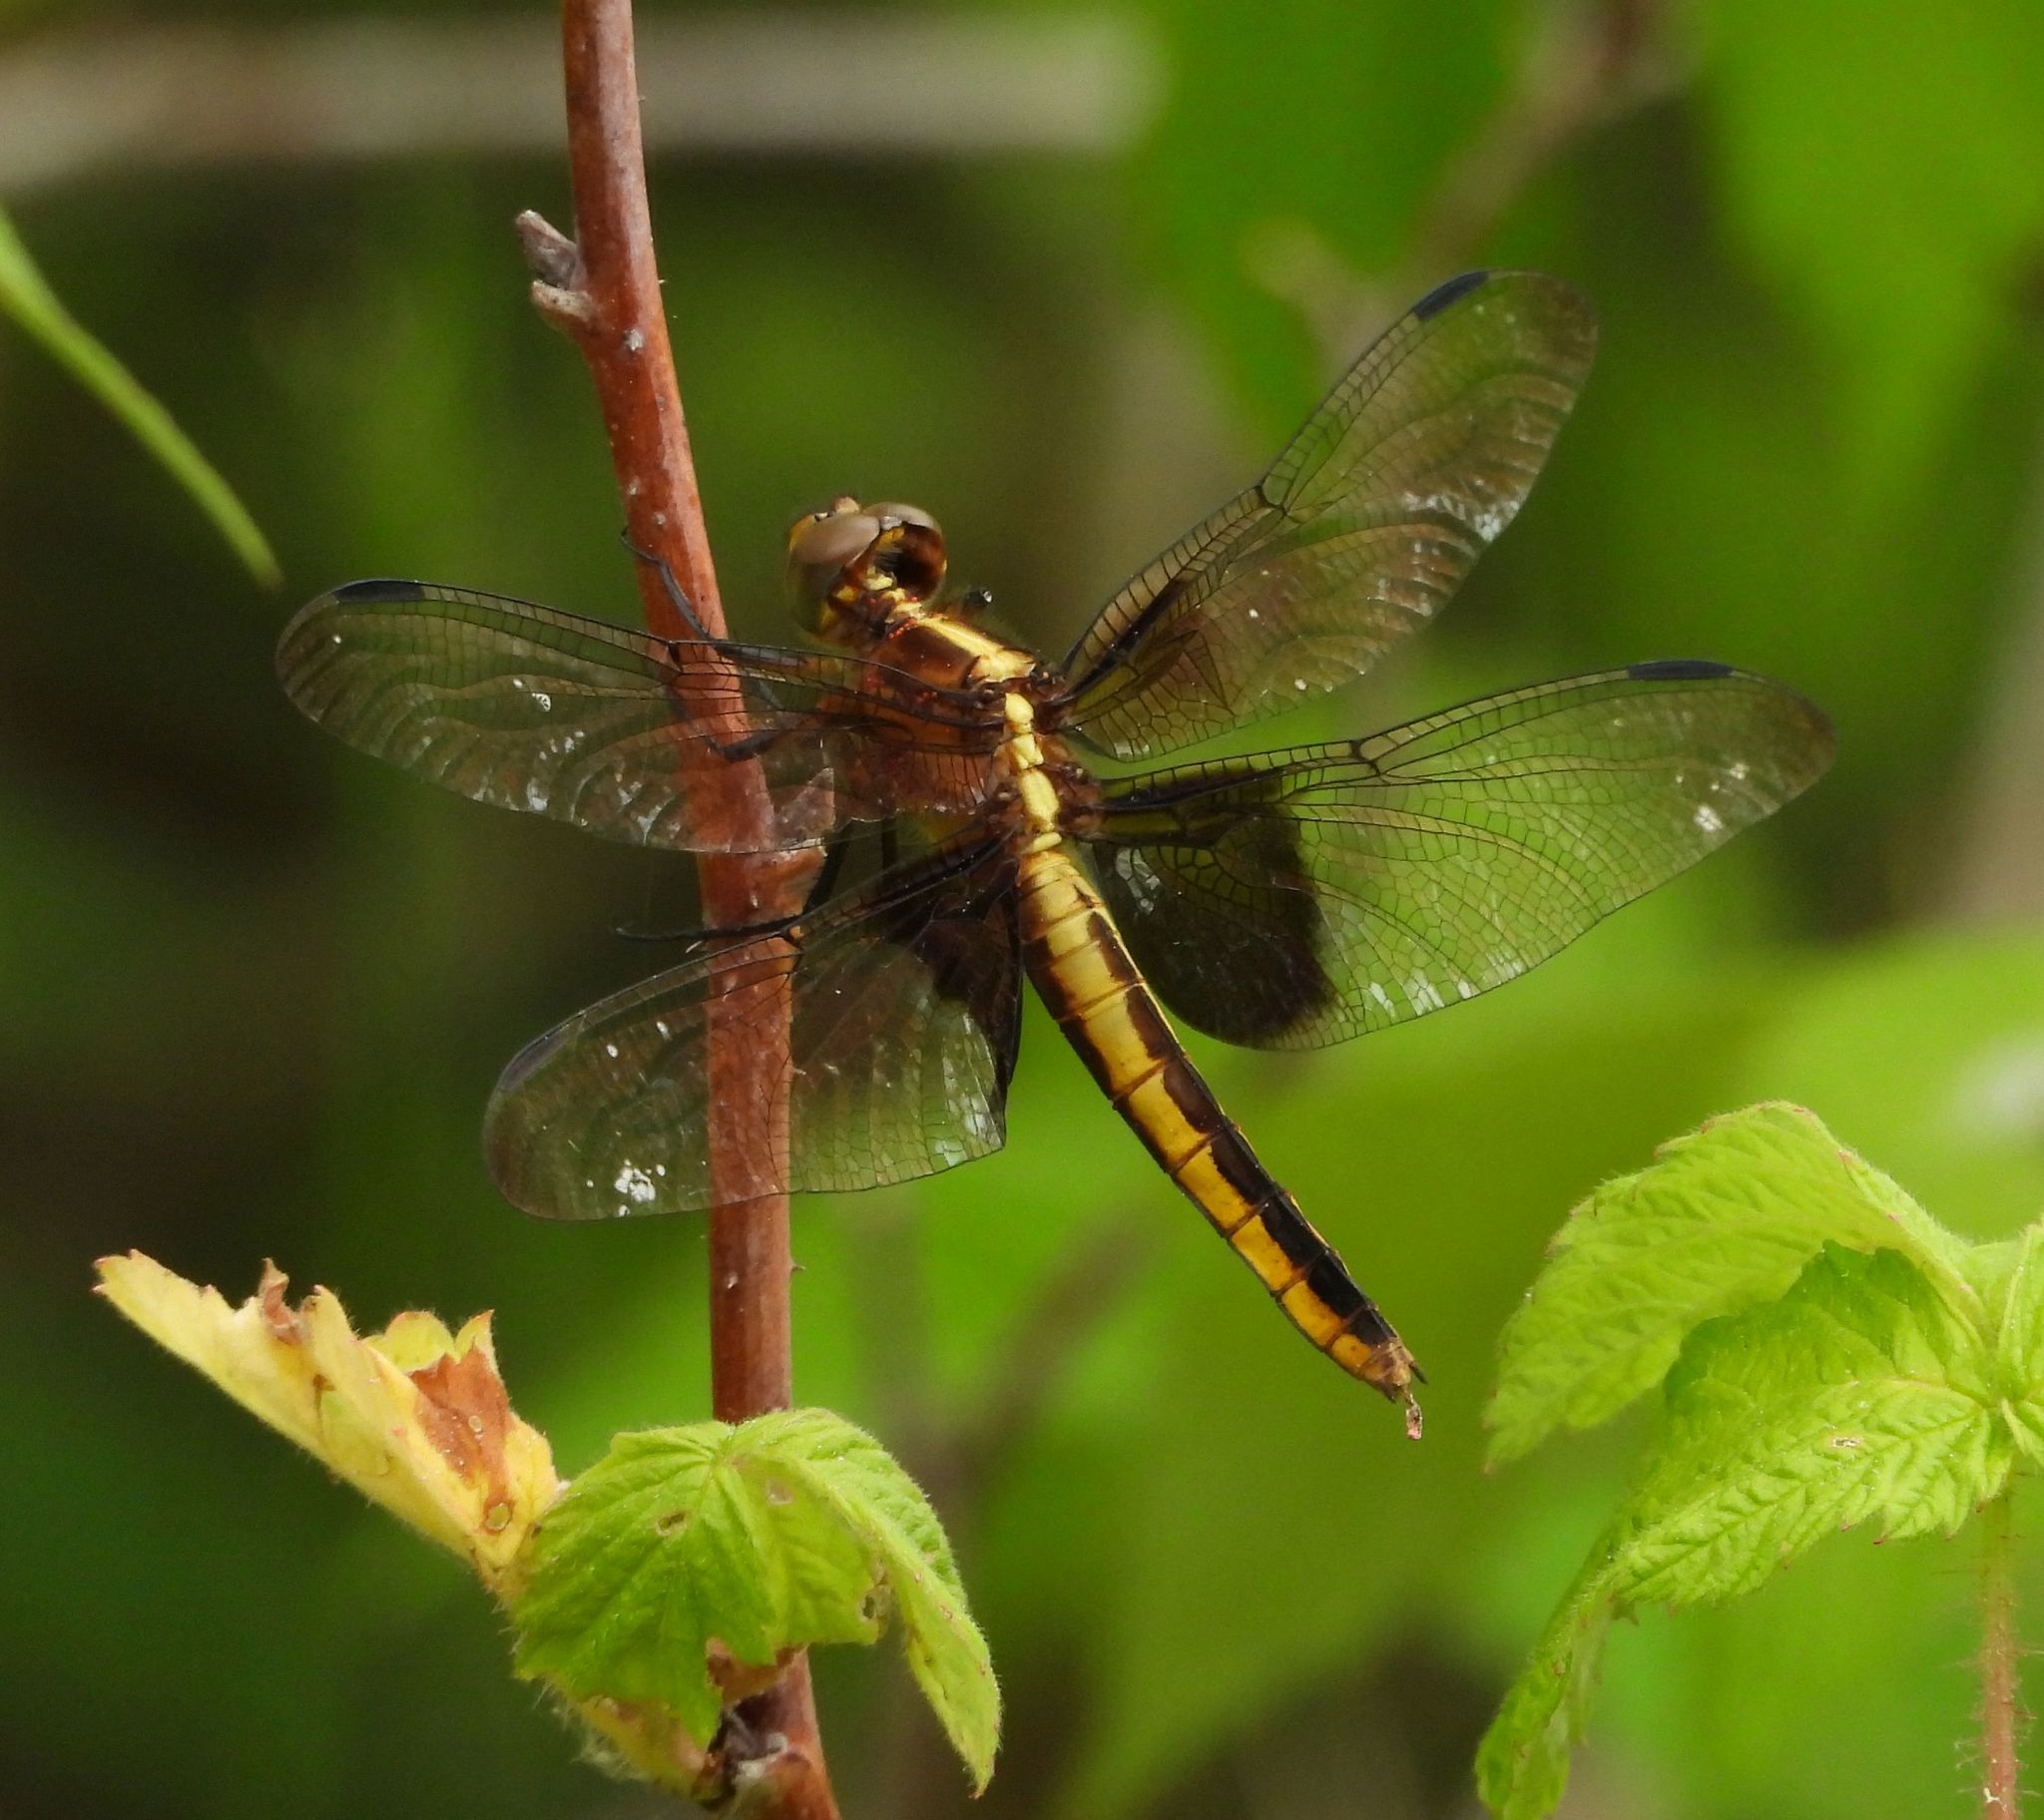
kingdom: Animalia
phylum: Arthropoda
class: Insecta
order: Odonata
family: Libellulidae
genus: Libellula
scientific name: Libellula luctuosa
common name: Widow skimmer
